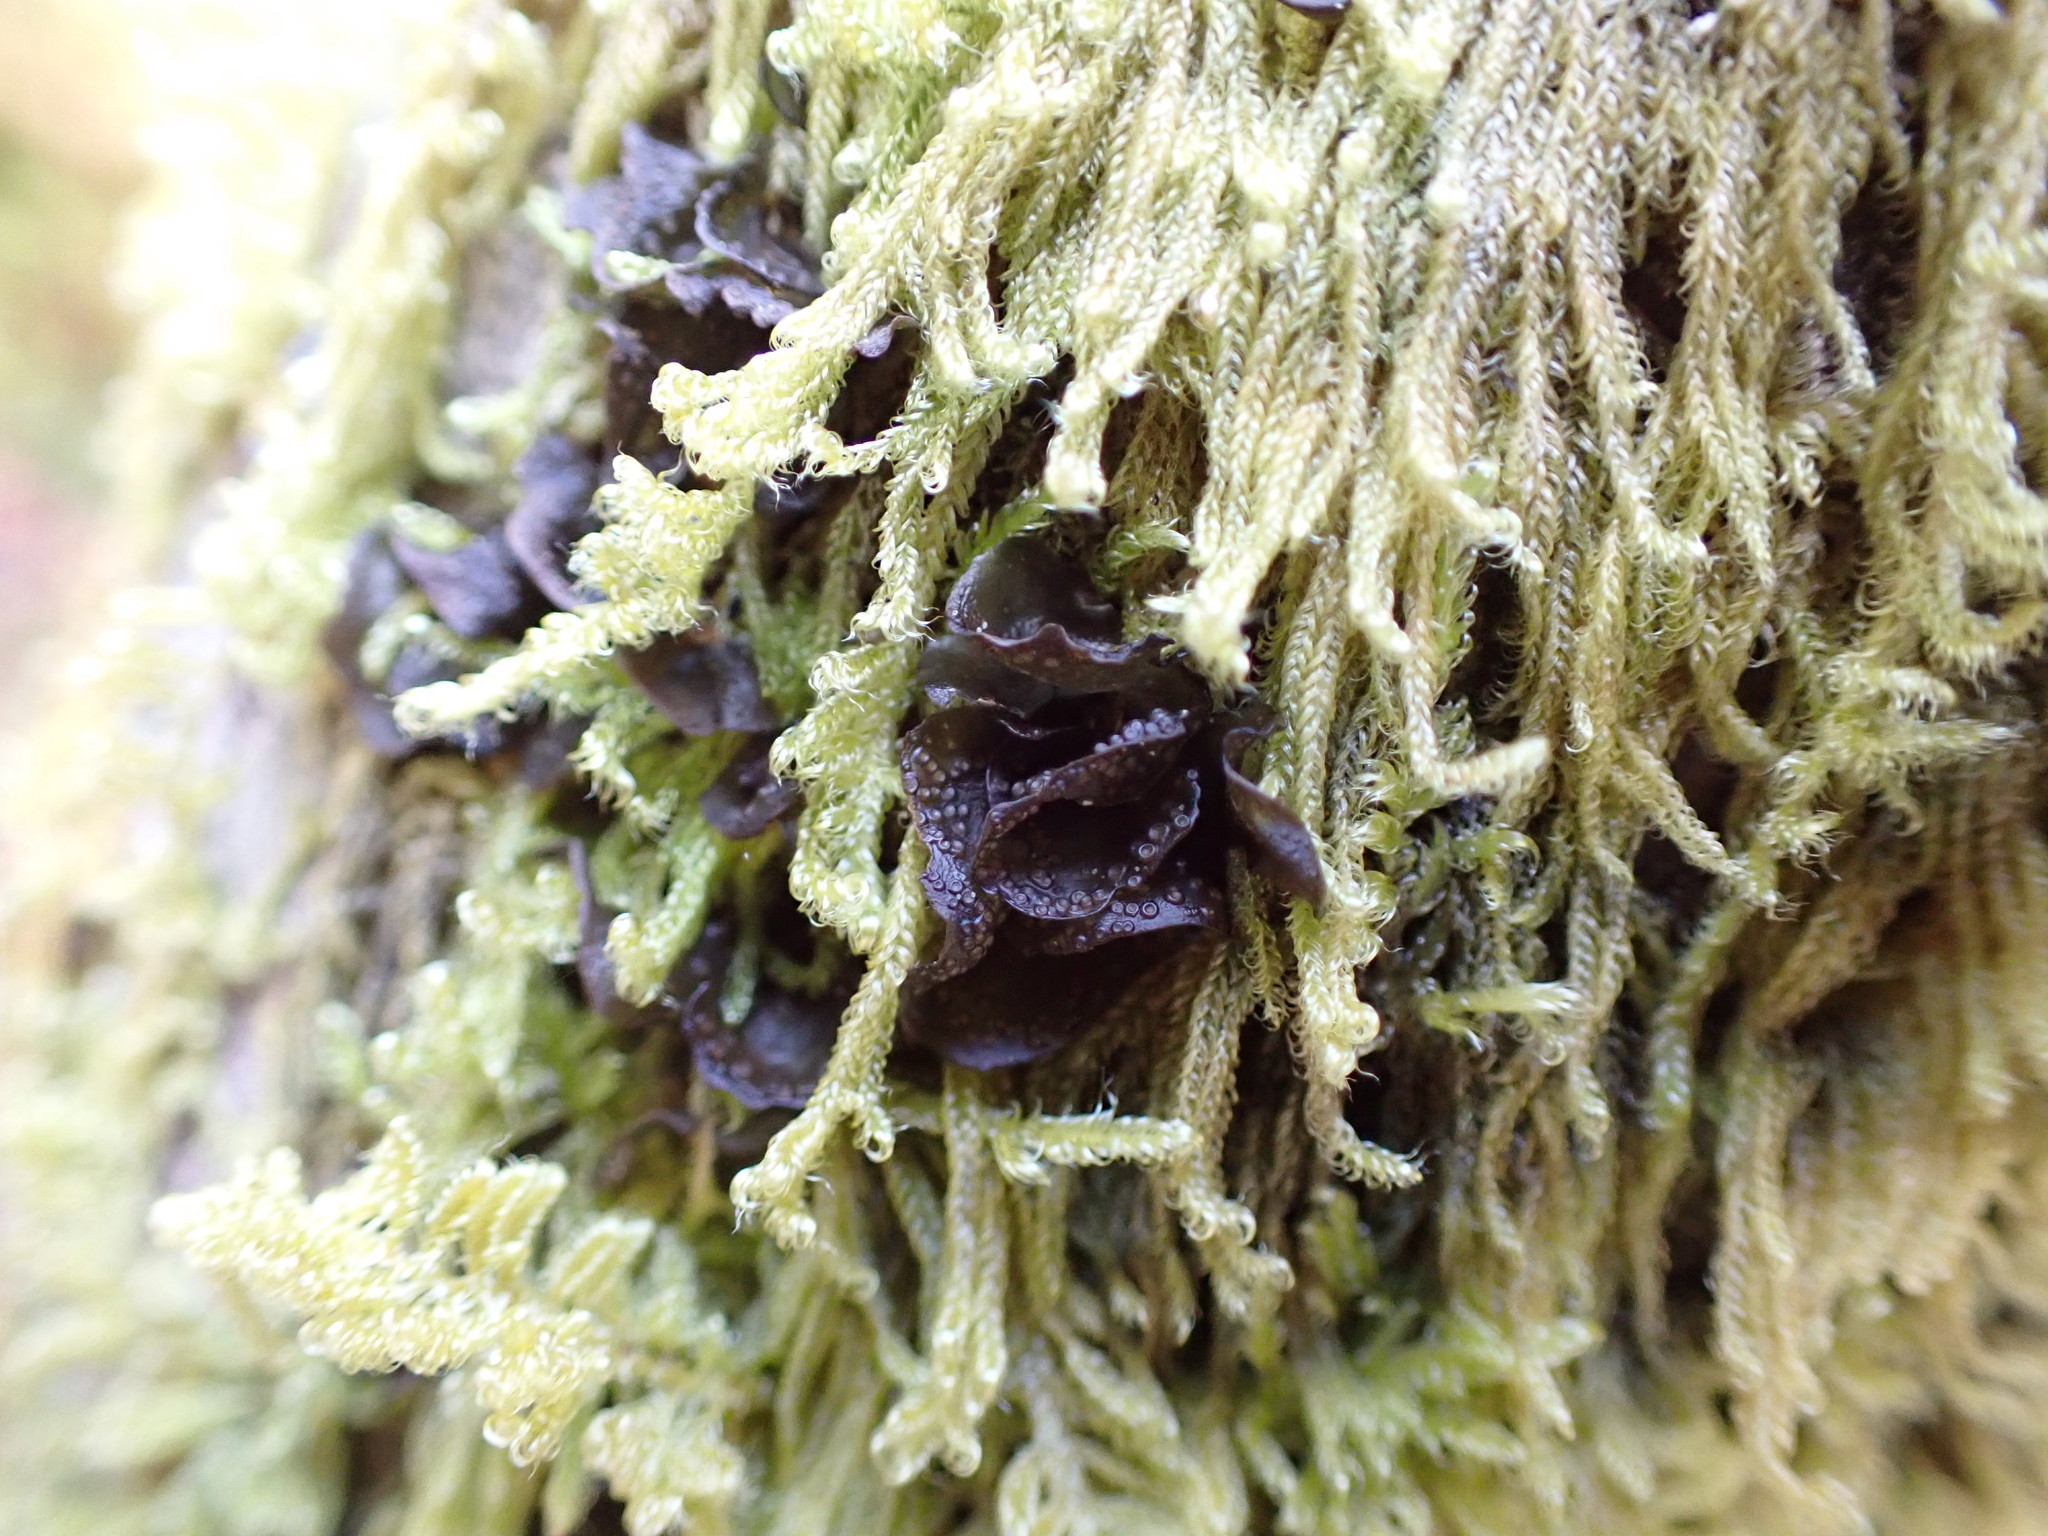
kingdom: Fungi
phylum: Ascomycota
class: Lecanoromycetes
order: Peltigerales
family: Collemataceae
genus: Scytinium
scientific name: Scytinium polycarpum
